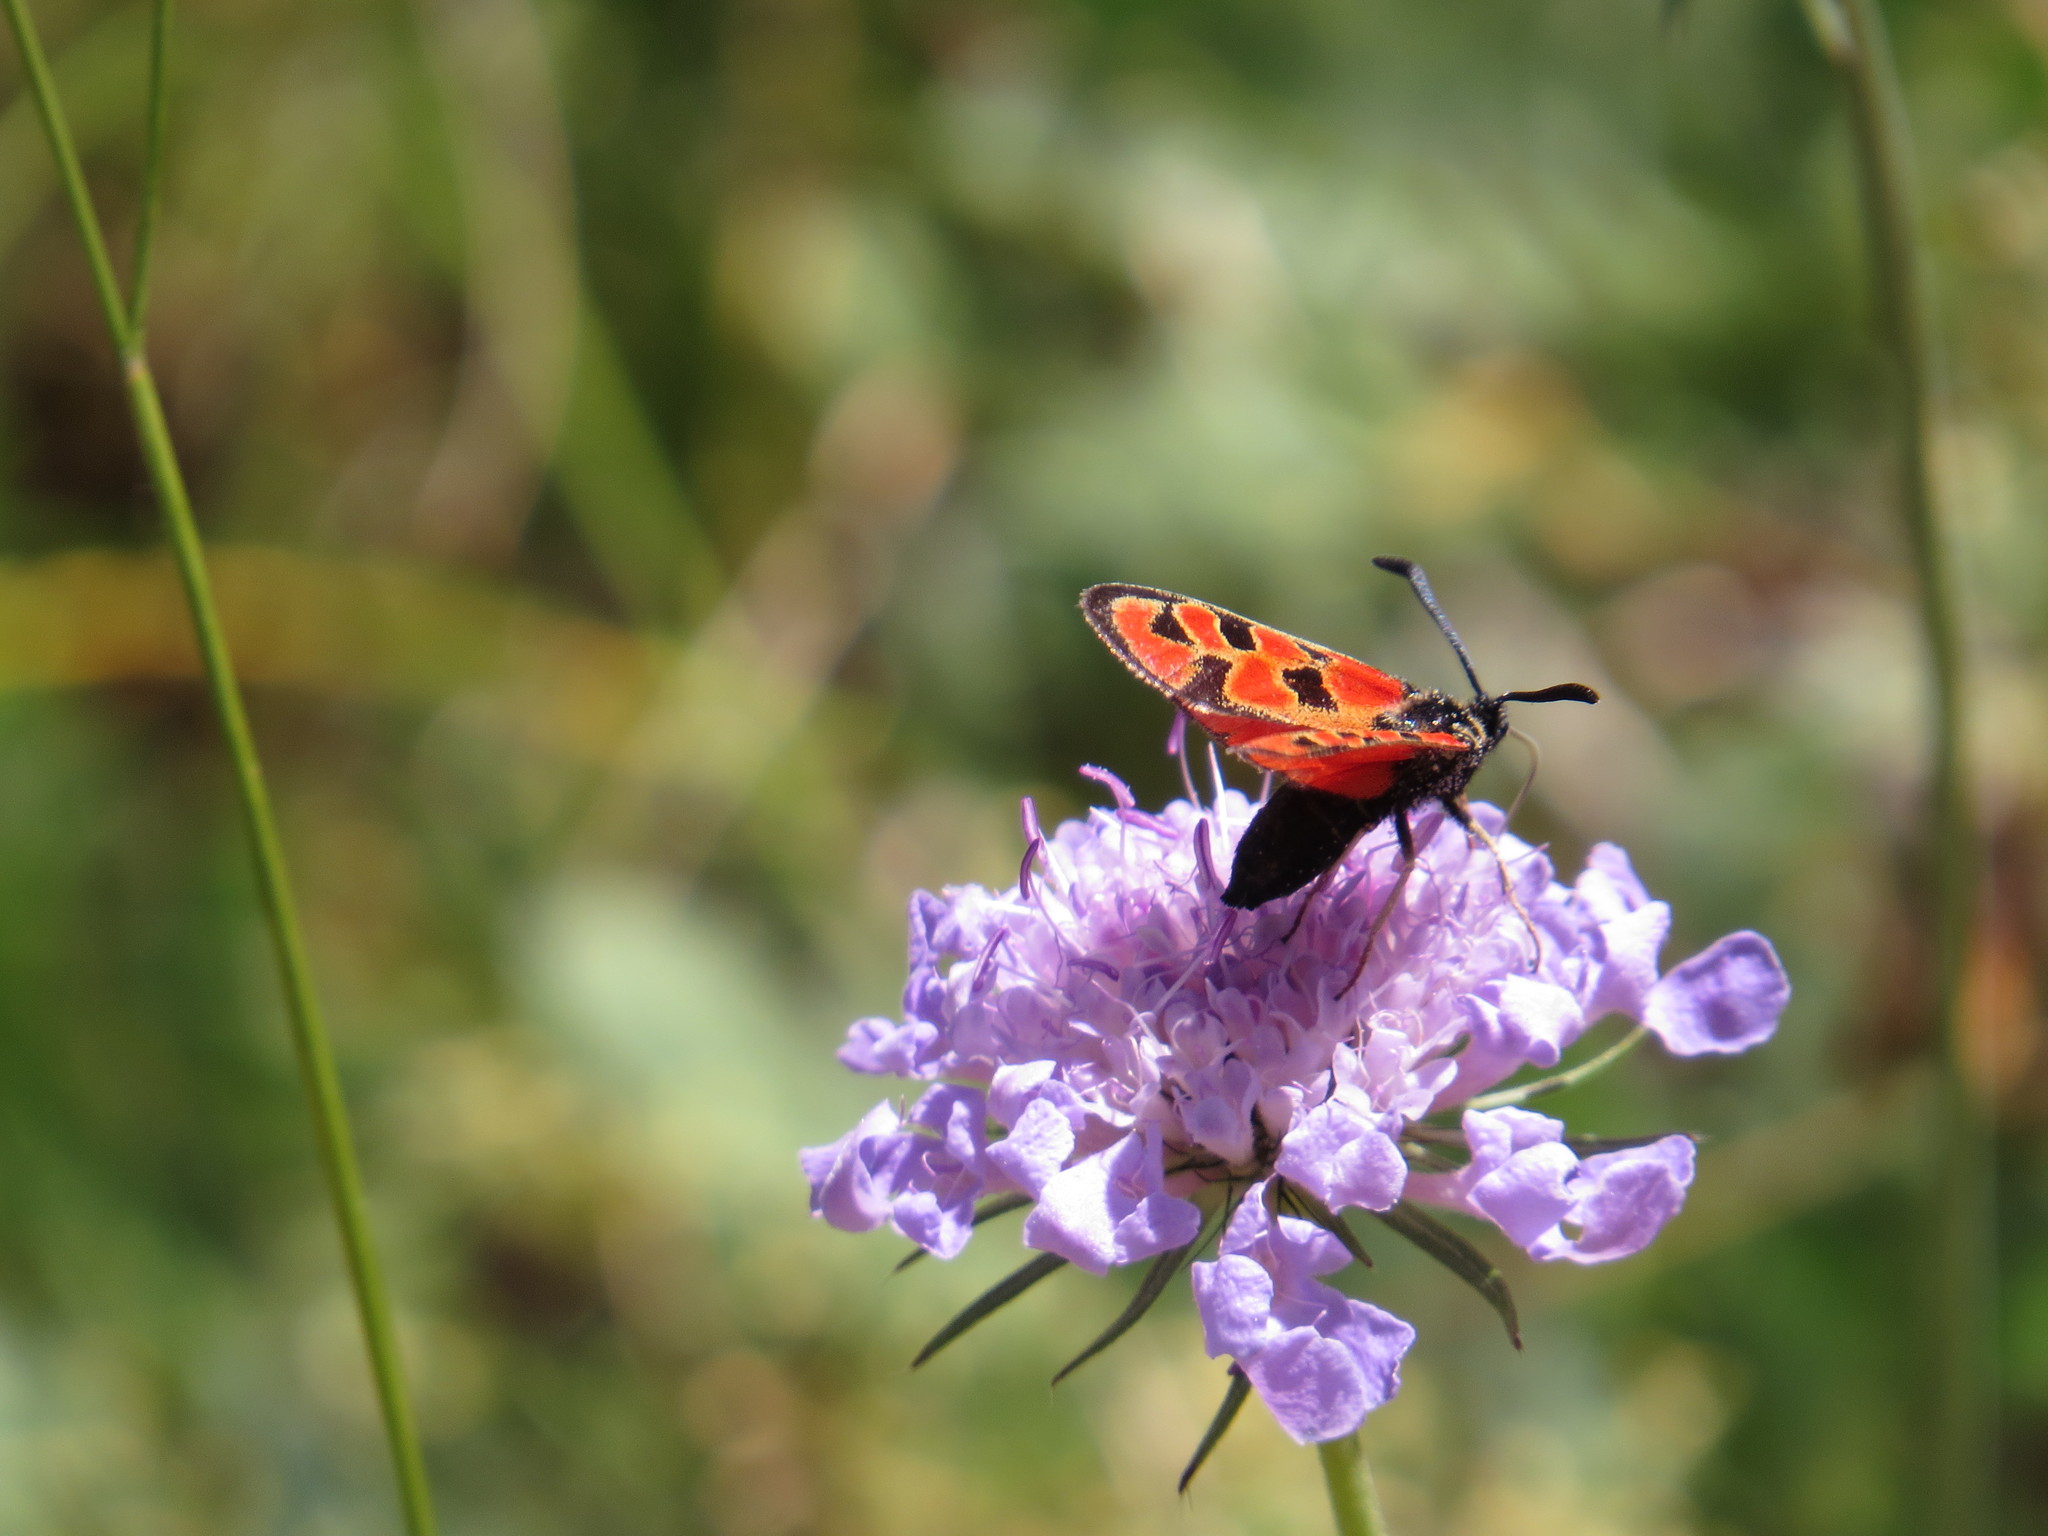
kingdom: Animalia
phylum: Arthropoda
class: Insecta
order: Lepidoptera
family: Zygaenidae
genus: Zygaena
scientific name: Zygaena hilaris
